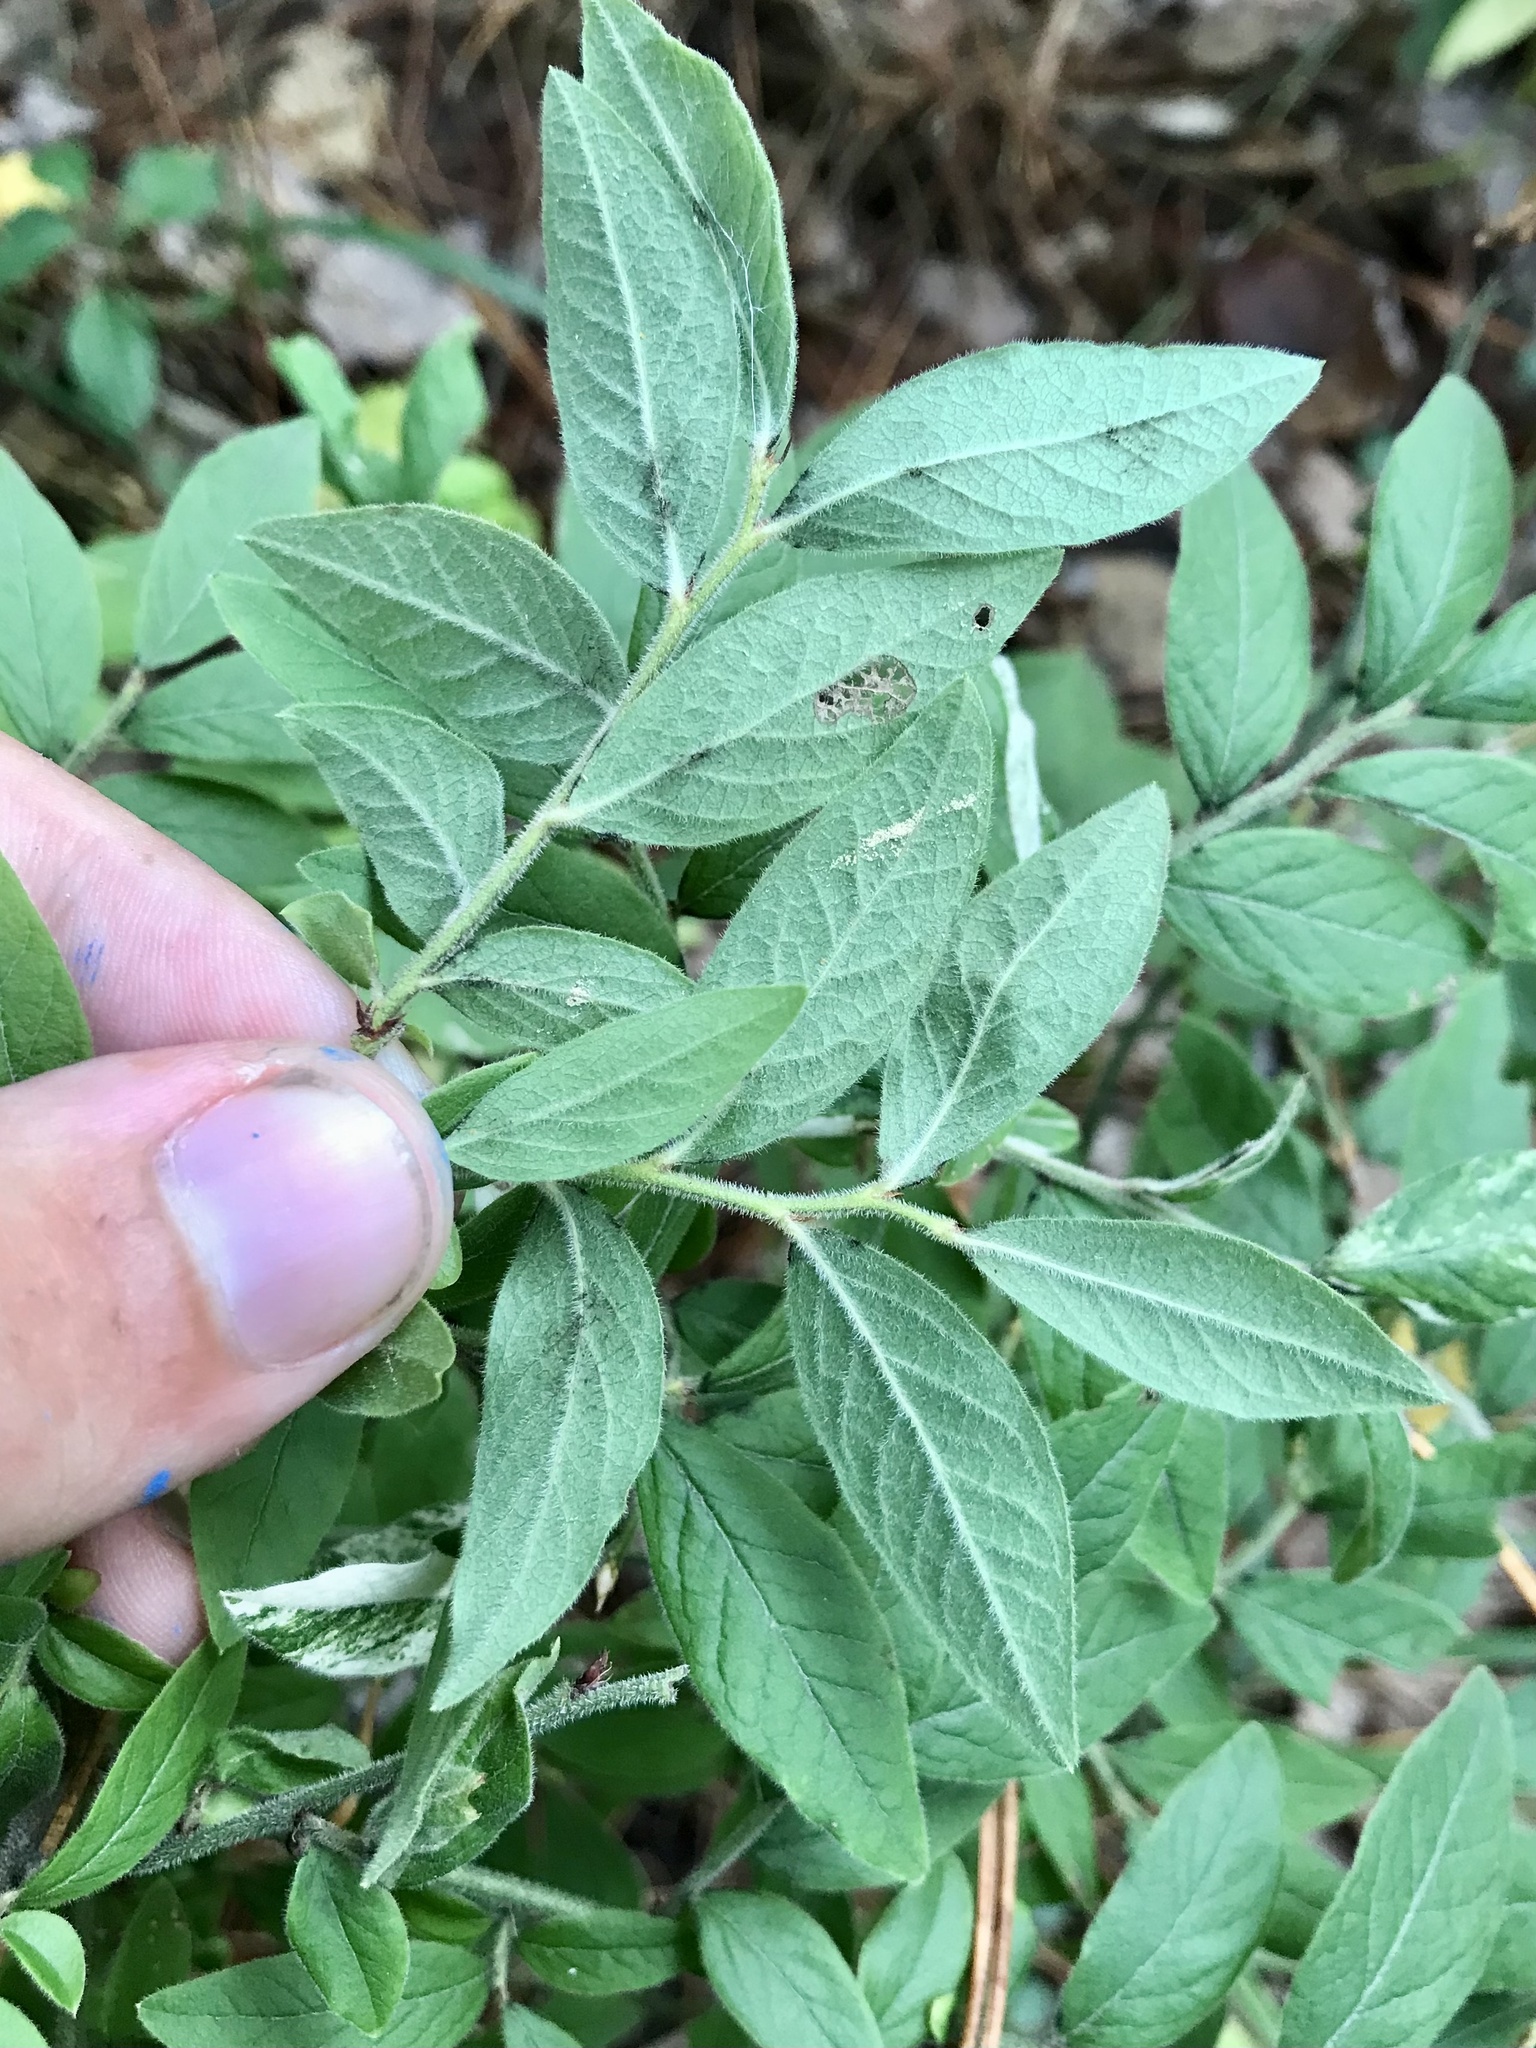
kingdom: Plantae
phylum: Tracheophyta
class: Magnoliopsida
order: Ericales
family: Ericaceae
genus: Vaccinium
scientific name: Vaccinium myrtilloides
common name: Canada blueberry
